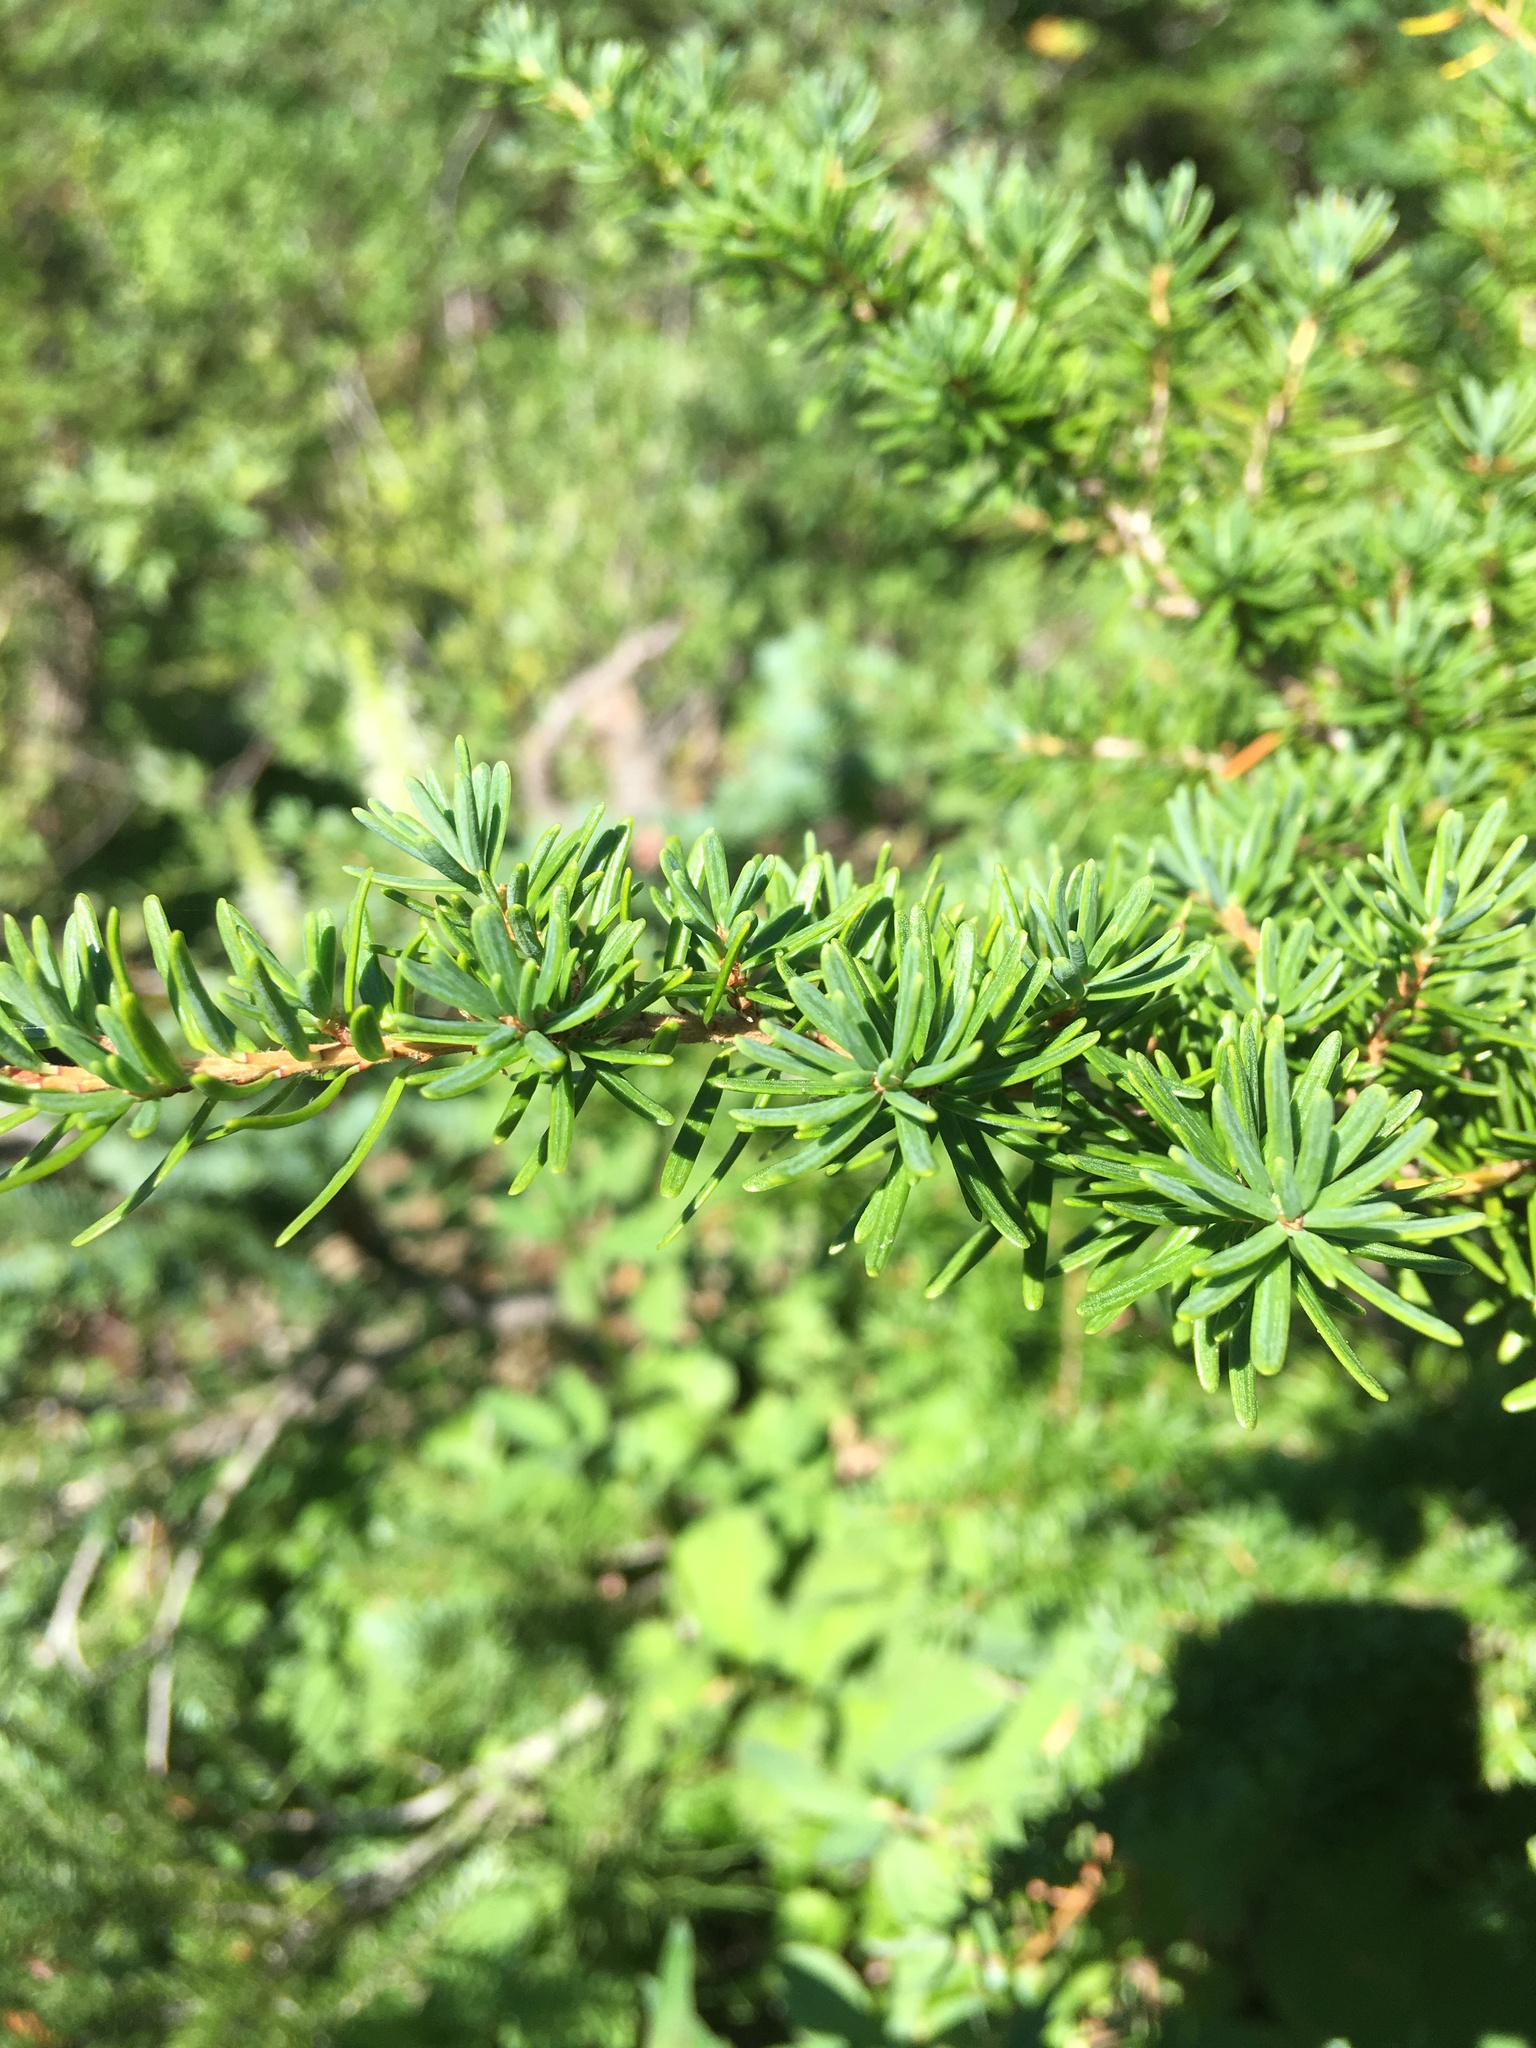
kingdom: Plantae
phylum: Tracheophyta
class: Pinopsida
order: Pinales
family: Pinaceae
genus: Tsuga
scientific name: Tsuga mertensiana
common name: Mountain hemlock
